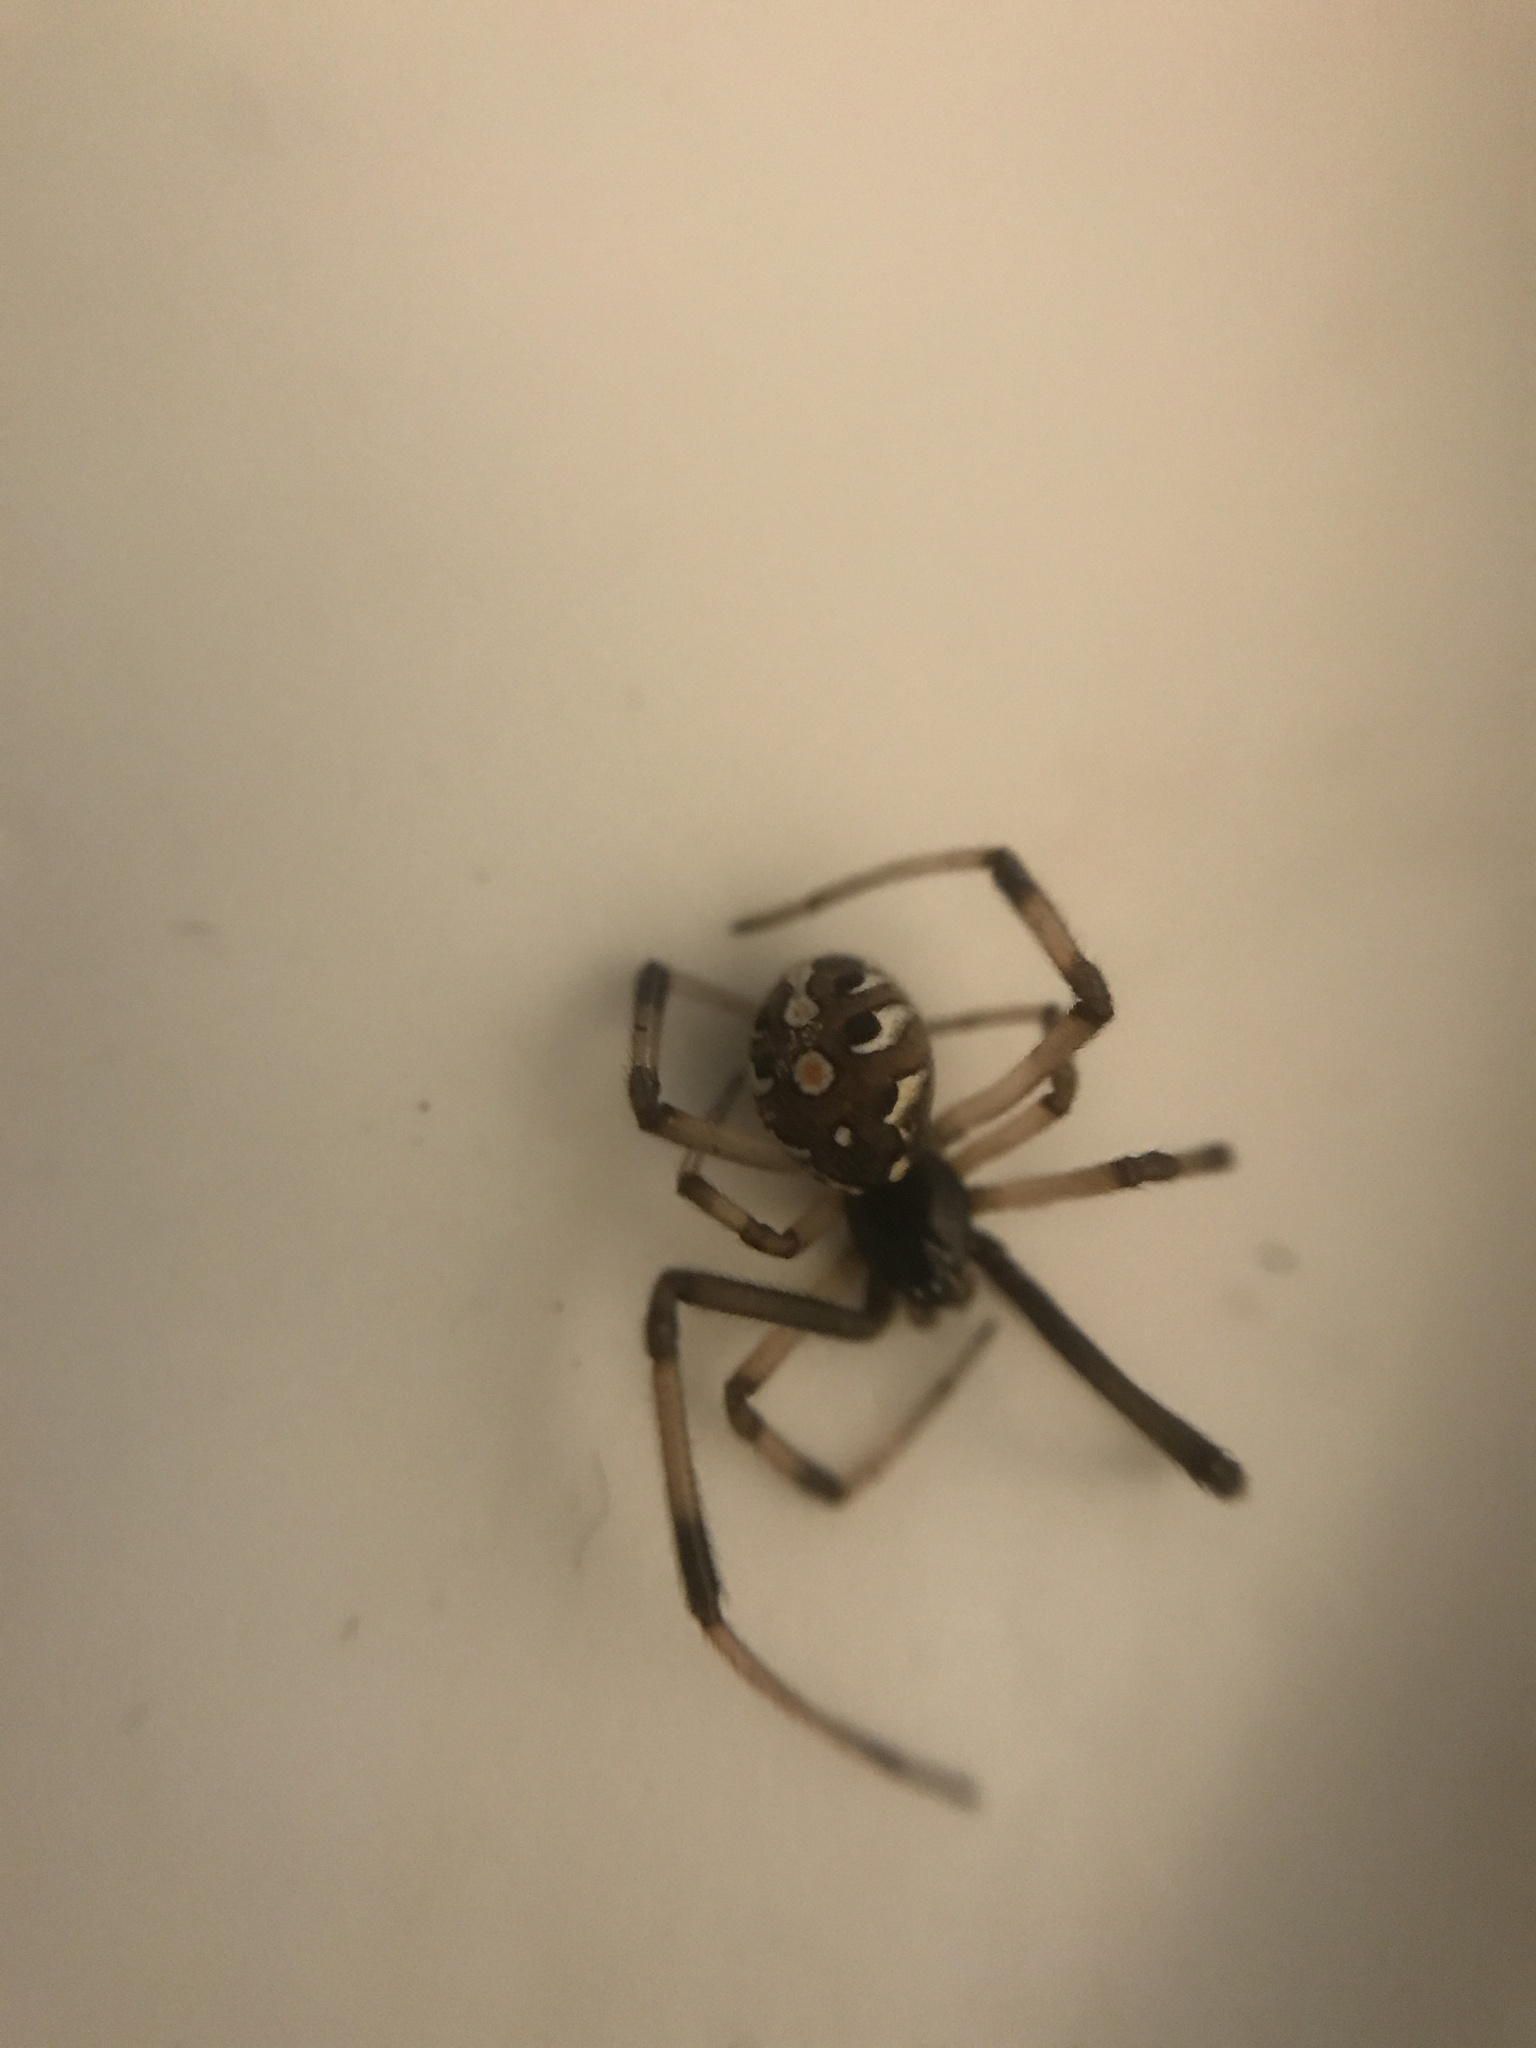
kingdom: Animalia
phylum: Arthropoda
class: Arachnida
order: Araneae
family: Theridiidae
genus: Latrodectus
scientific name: Latrodectus geometricus
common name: Brown widow spider
